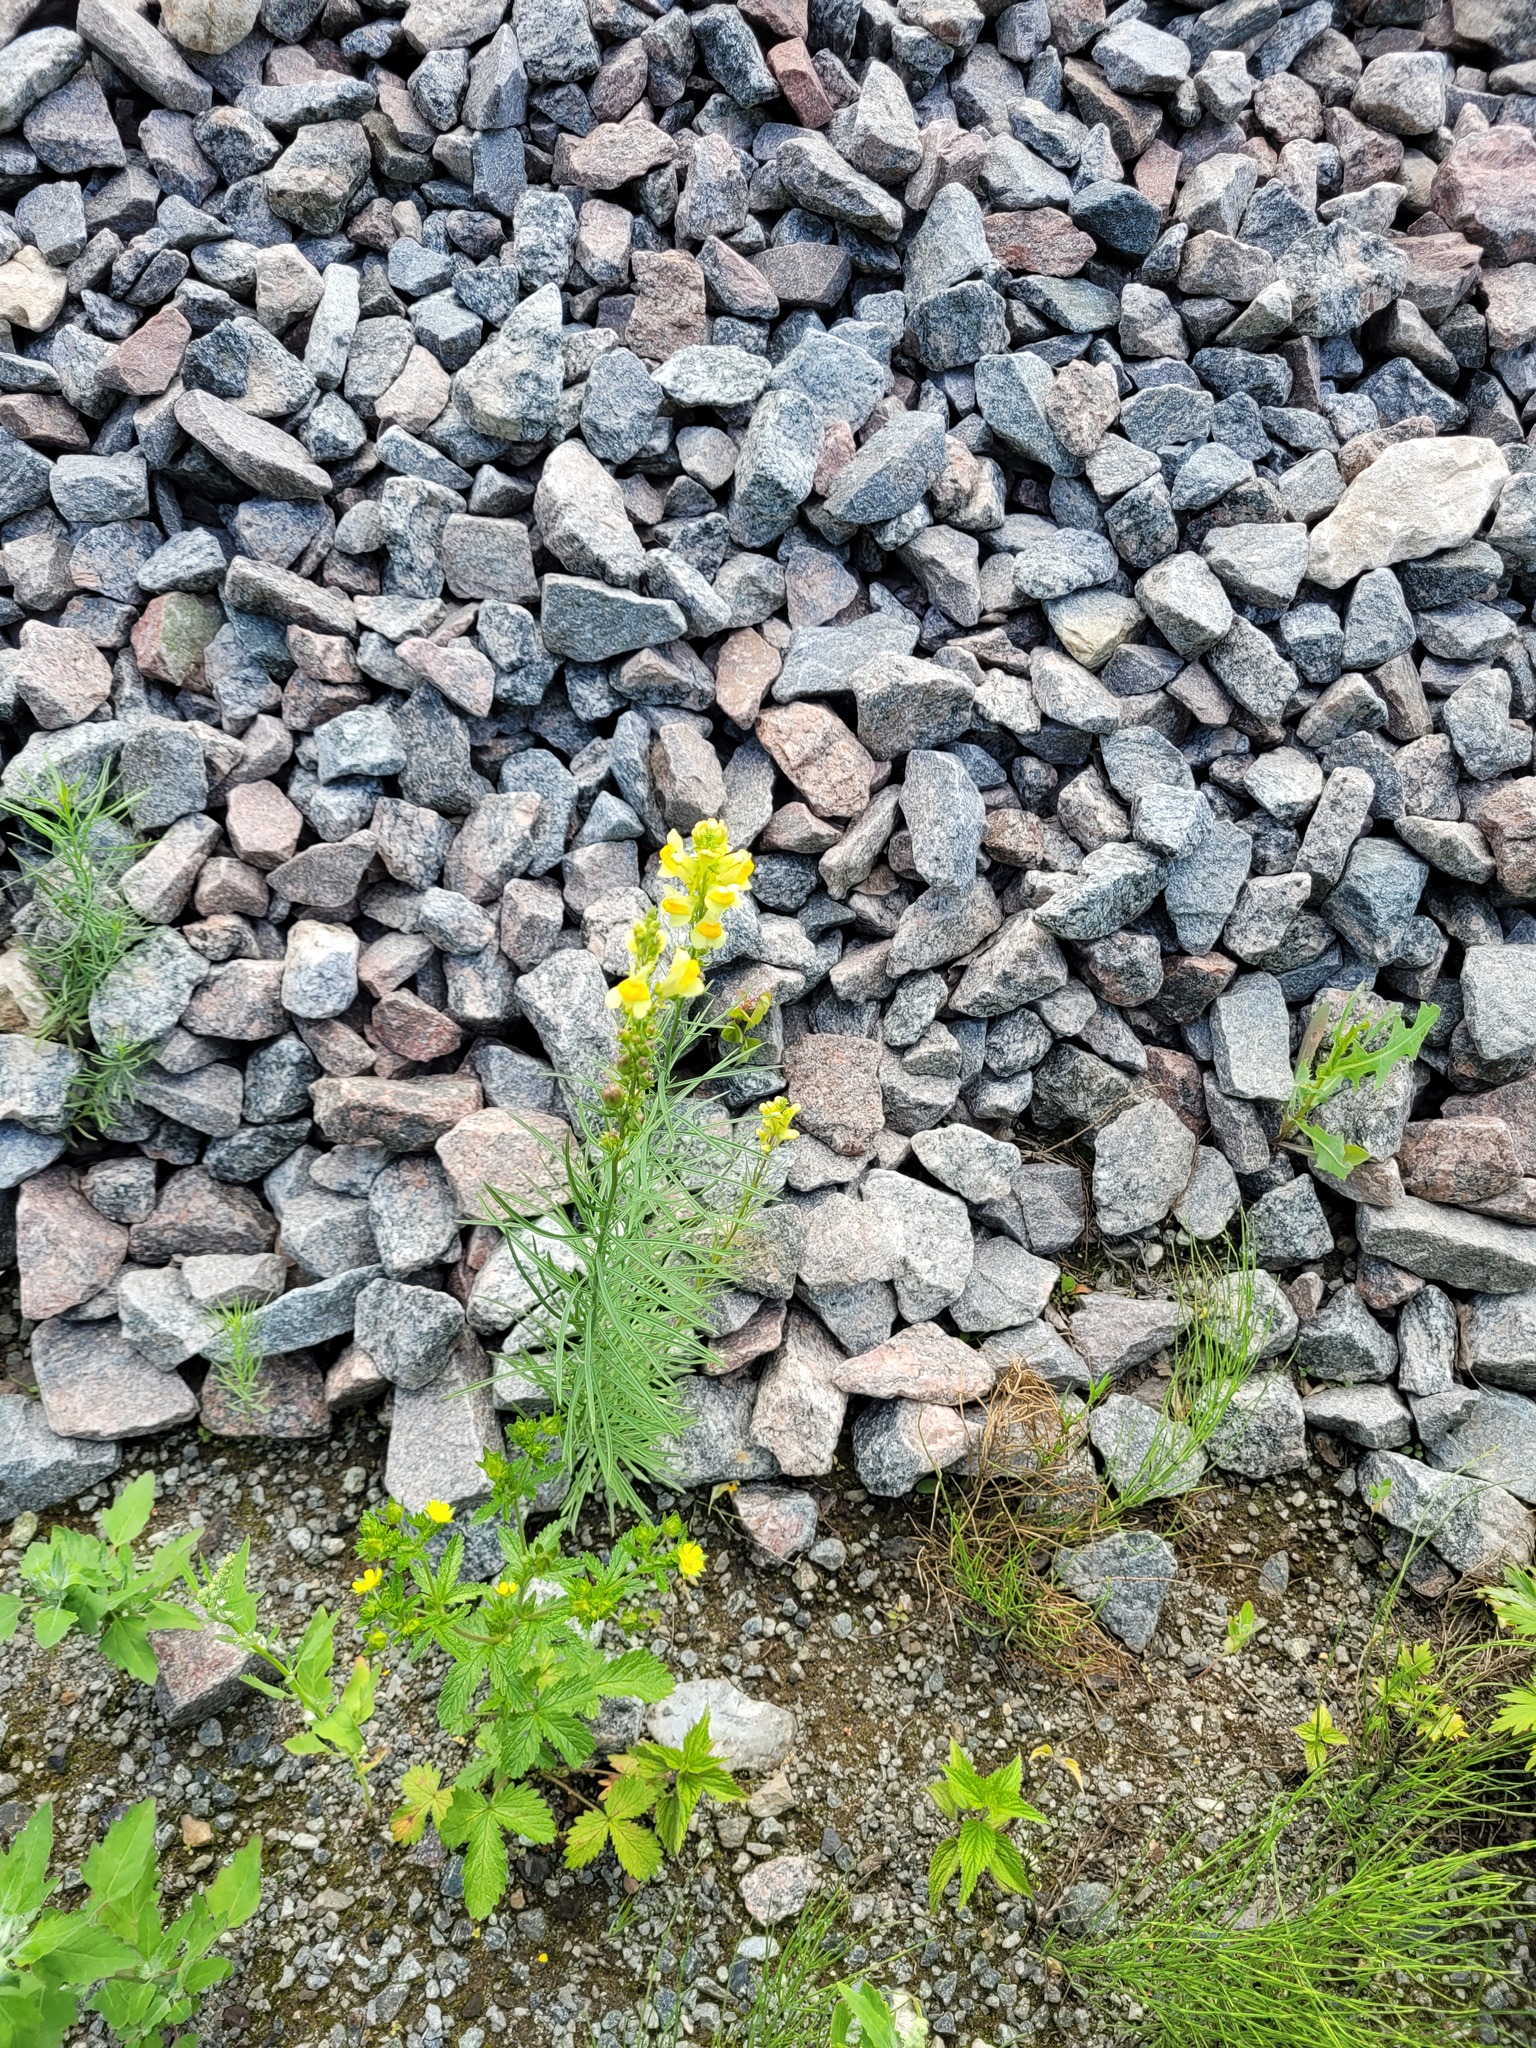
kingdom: Plantae
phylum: Tracheophyta
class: Magnoliopsida
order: Lamiales
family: Plantaginaceae
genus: Linaria
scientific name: Linaria vulgaris
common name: Butter and eggs
